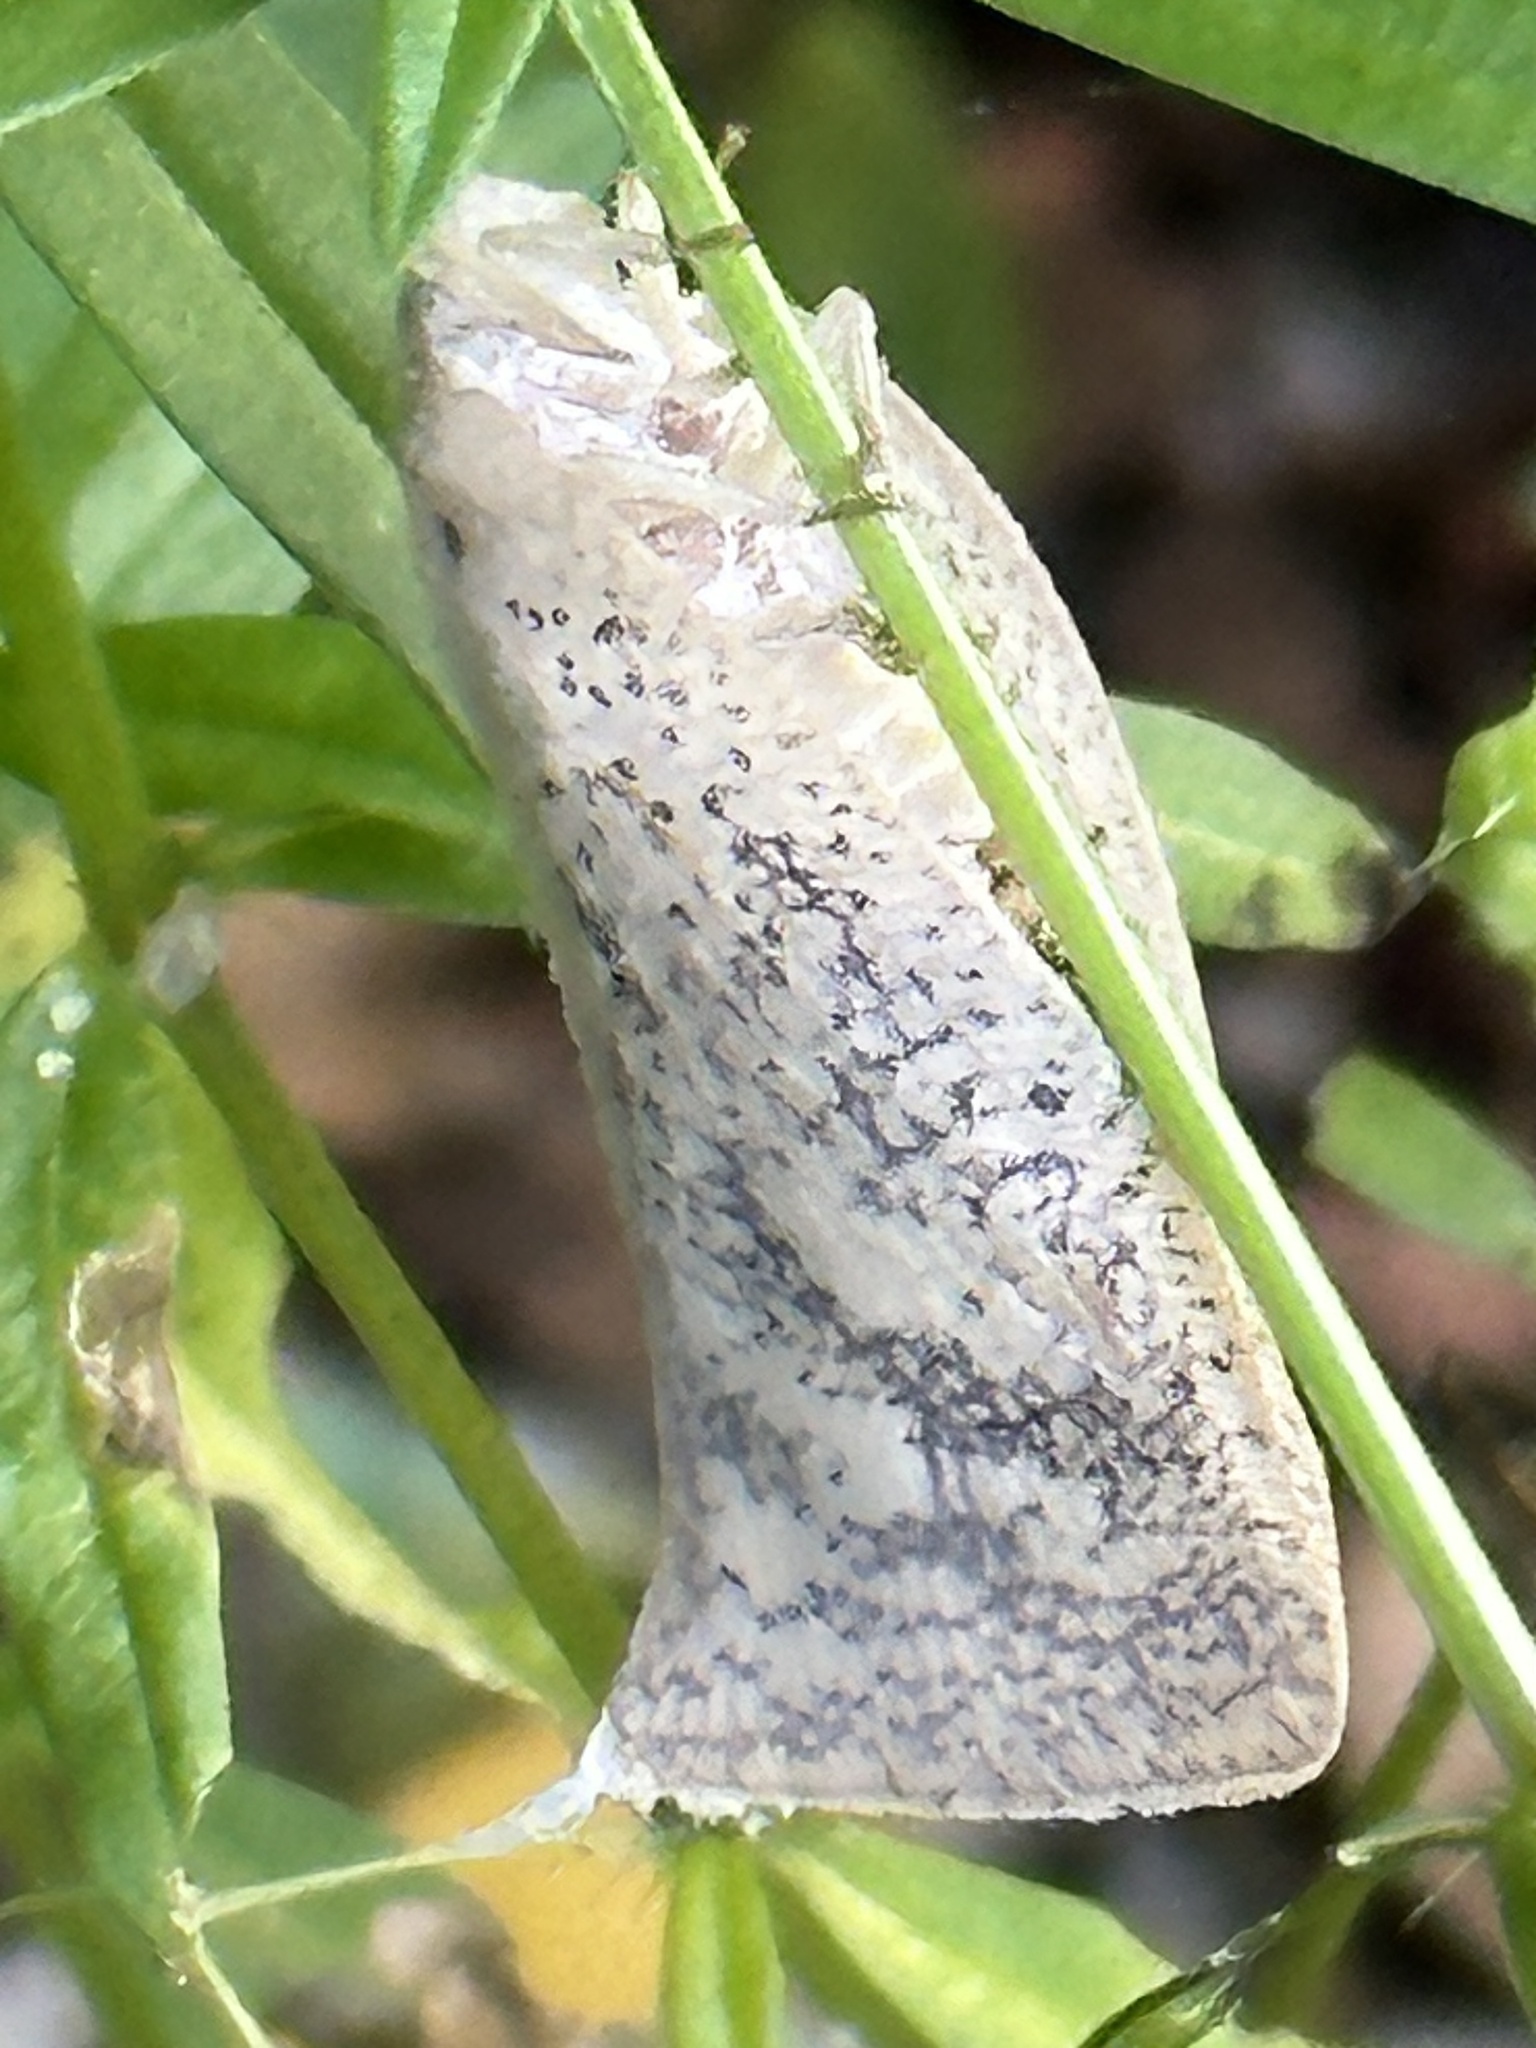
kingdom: Animalia
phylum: Arthropoda
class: Insecta
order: Hemiptera
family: Flatidae
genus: Lawana
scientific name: Lawana conspersa
